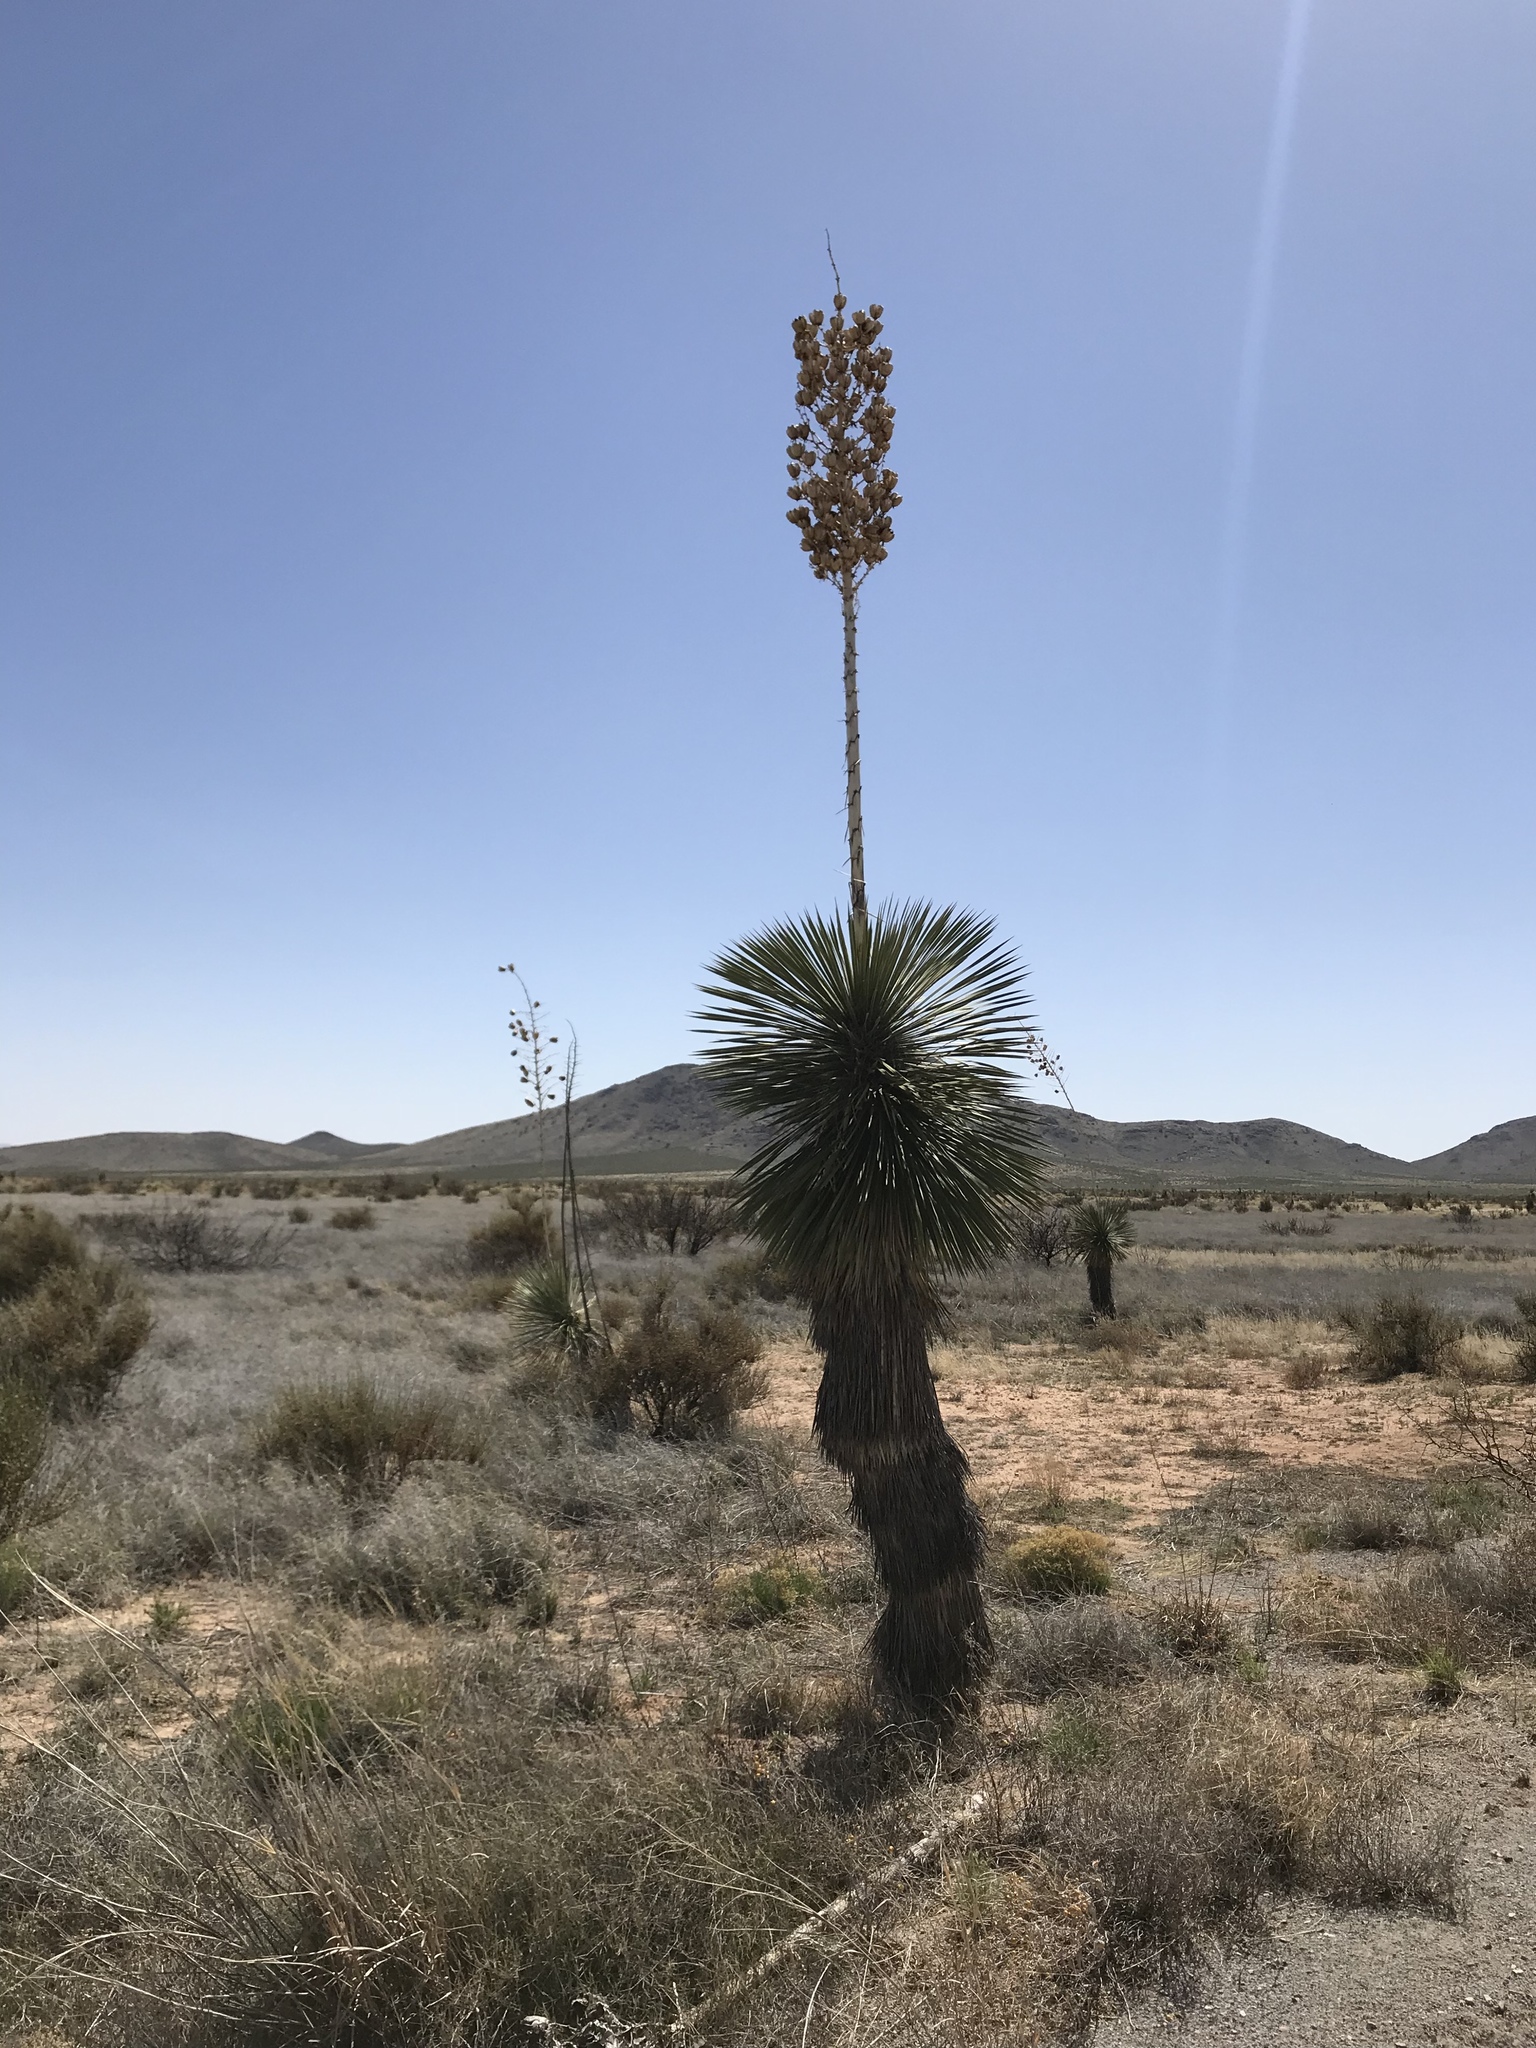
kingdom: Plantae
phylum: Tracheophyta
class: Liliopsida
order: Asparagales
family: Asparagaceae
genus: Yucca
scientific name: Yucca elata
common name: Palmella
